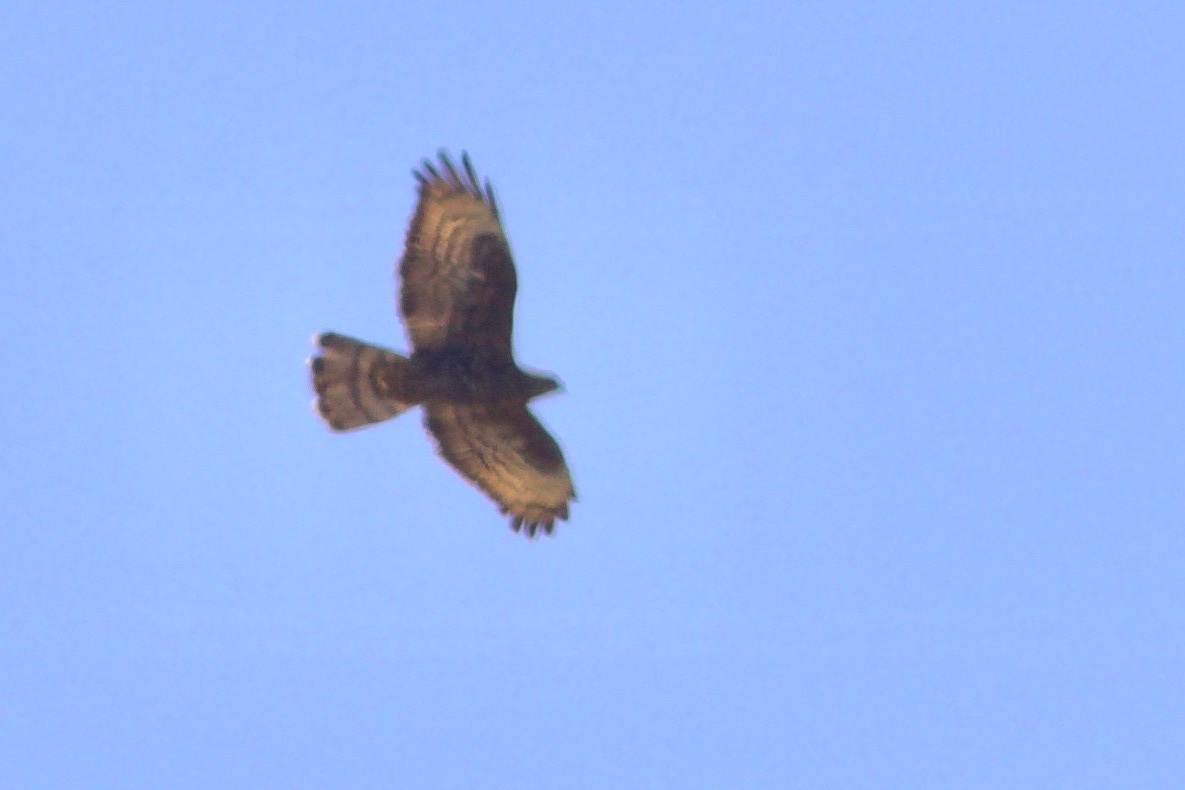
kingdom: Animalia
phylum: Chordata
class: Aves
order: Accipitriformes
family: Accipitridae
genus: Pernis
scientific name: Pernis apivorus
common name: European honey buzzard
